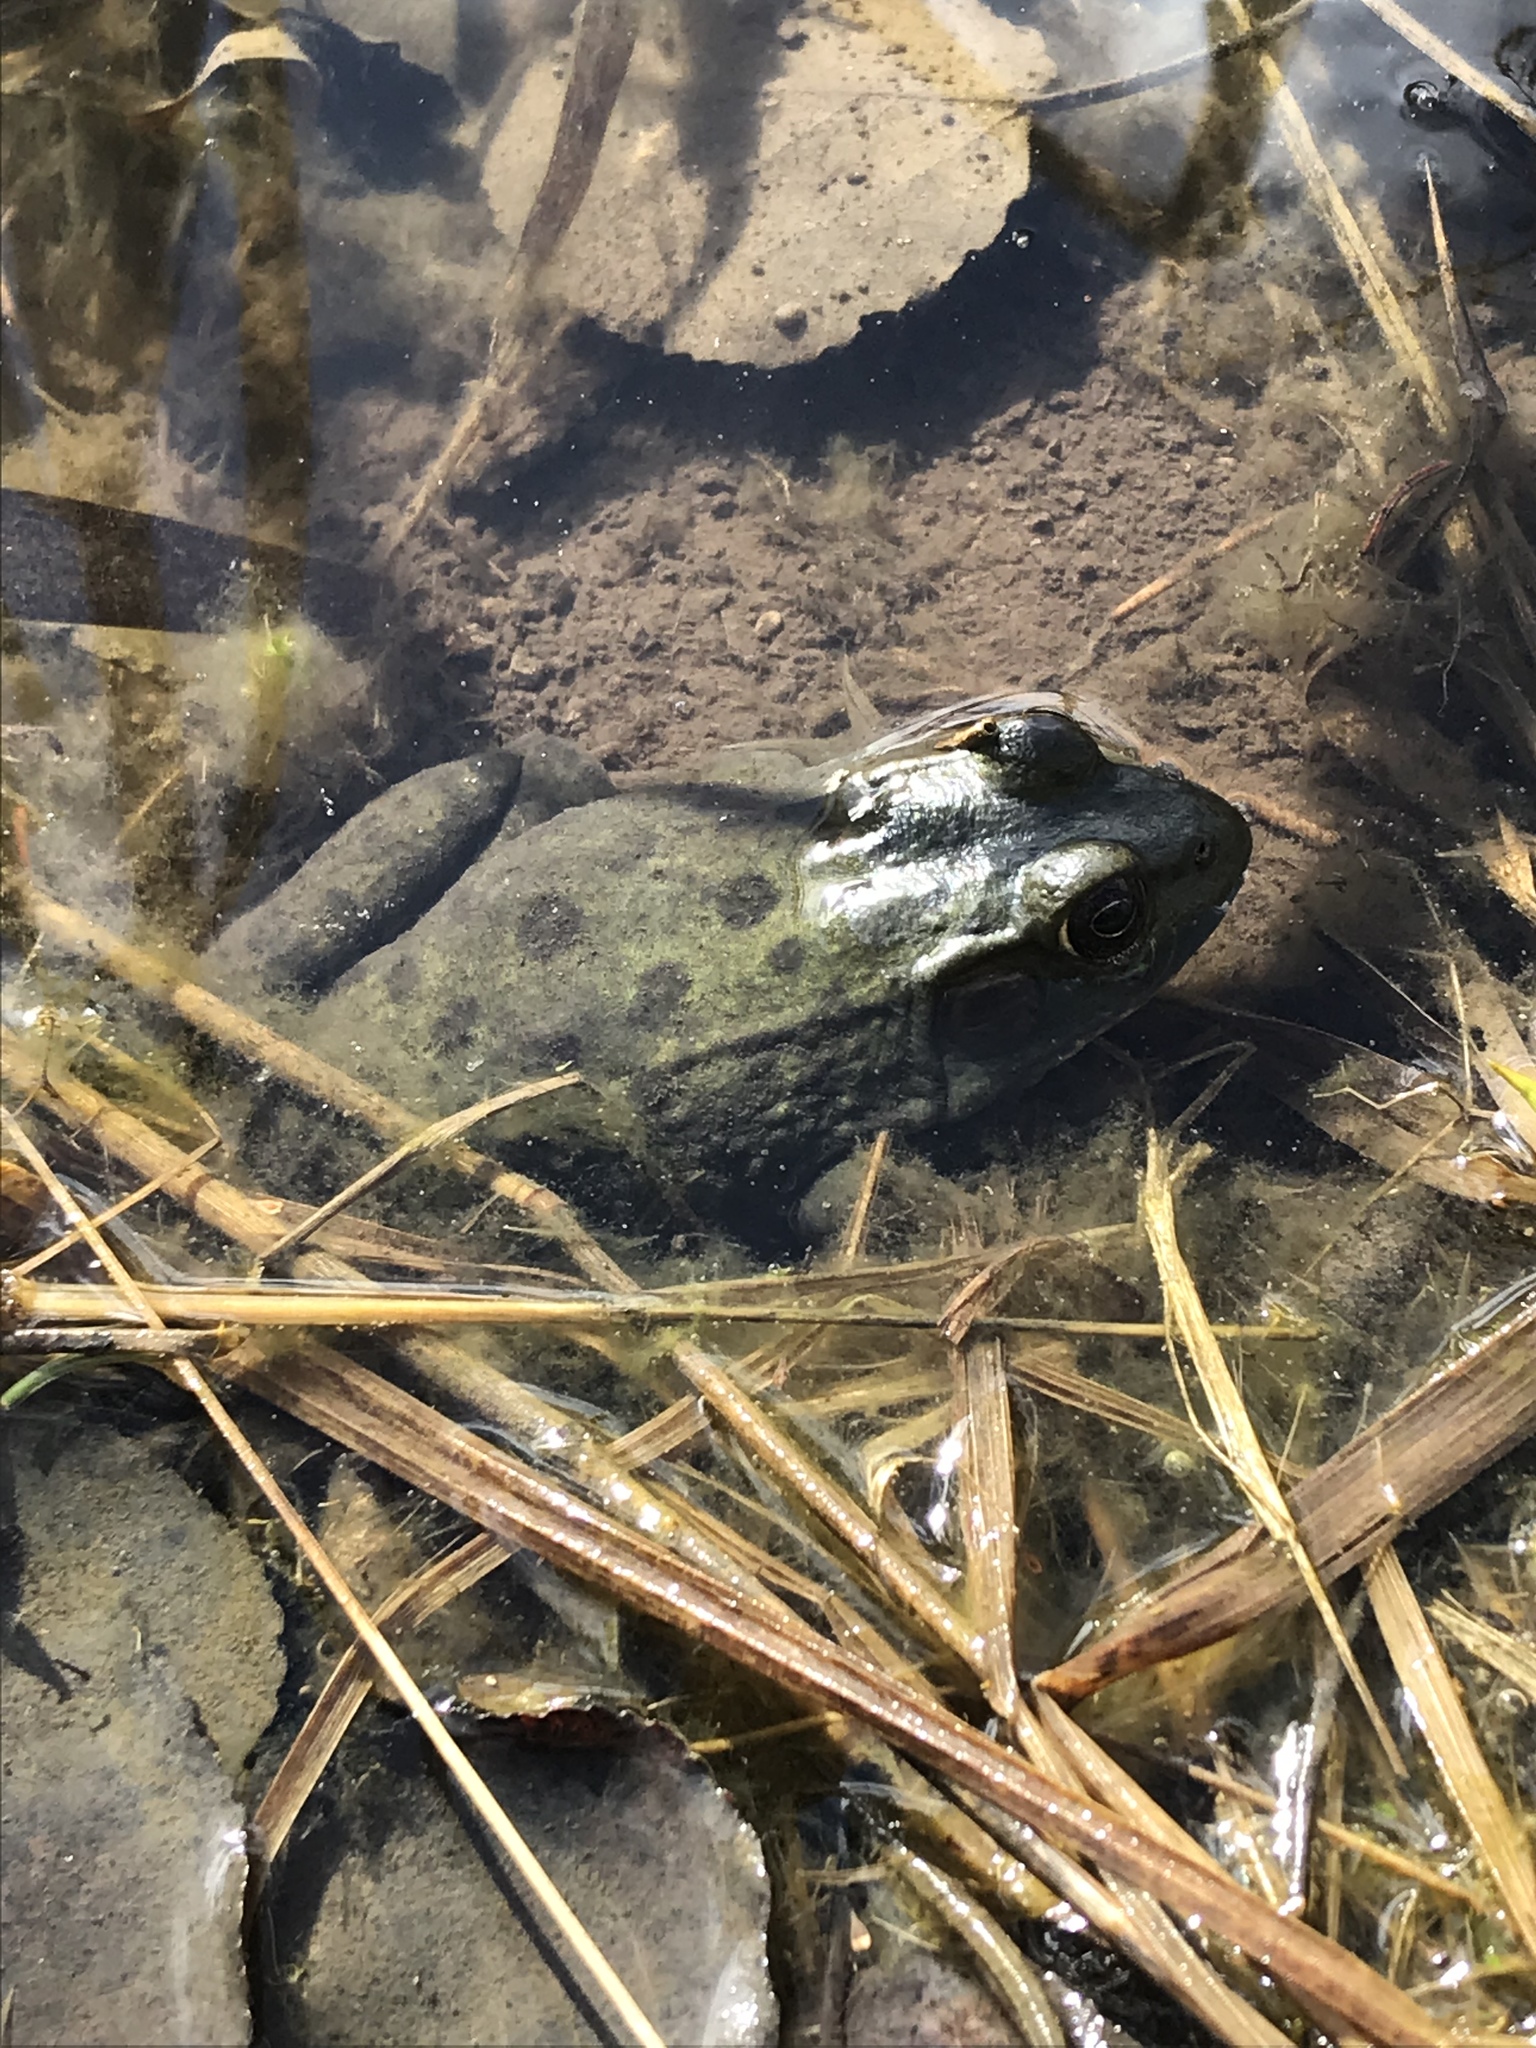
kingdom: Animalia
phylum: Chordata
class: Amphibia
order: Anura
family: Ranidae
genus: Lithobates
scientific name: Lithobates clamitans
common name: Green frog
